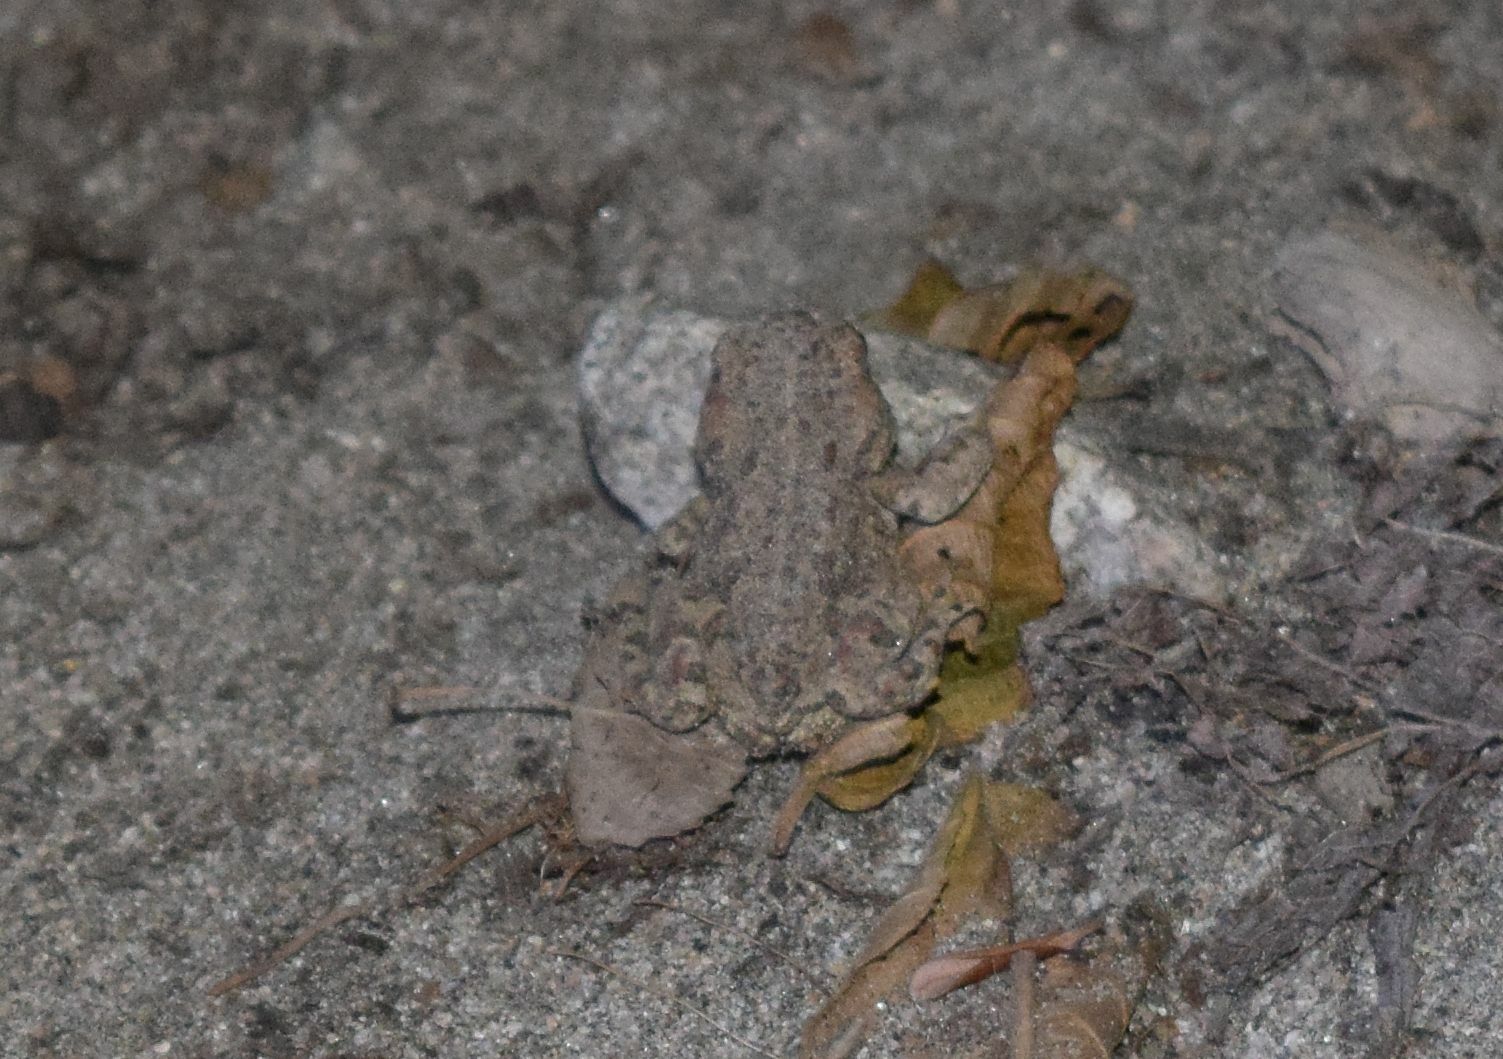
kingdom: Animalia
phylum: Chordata
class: Amphibia
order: Anura
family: Bufonidae
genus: Anaxyrus
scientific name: Anaxyrus boreas
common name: Western toad
